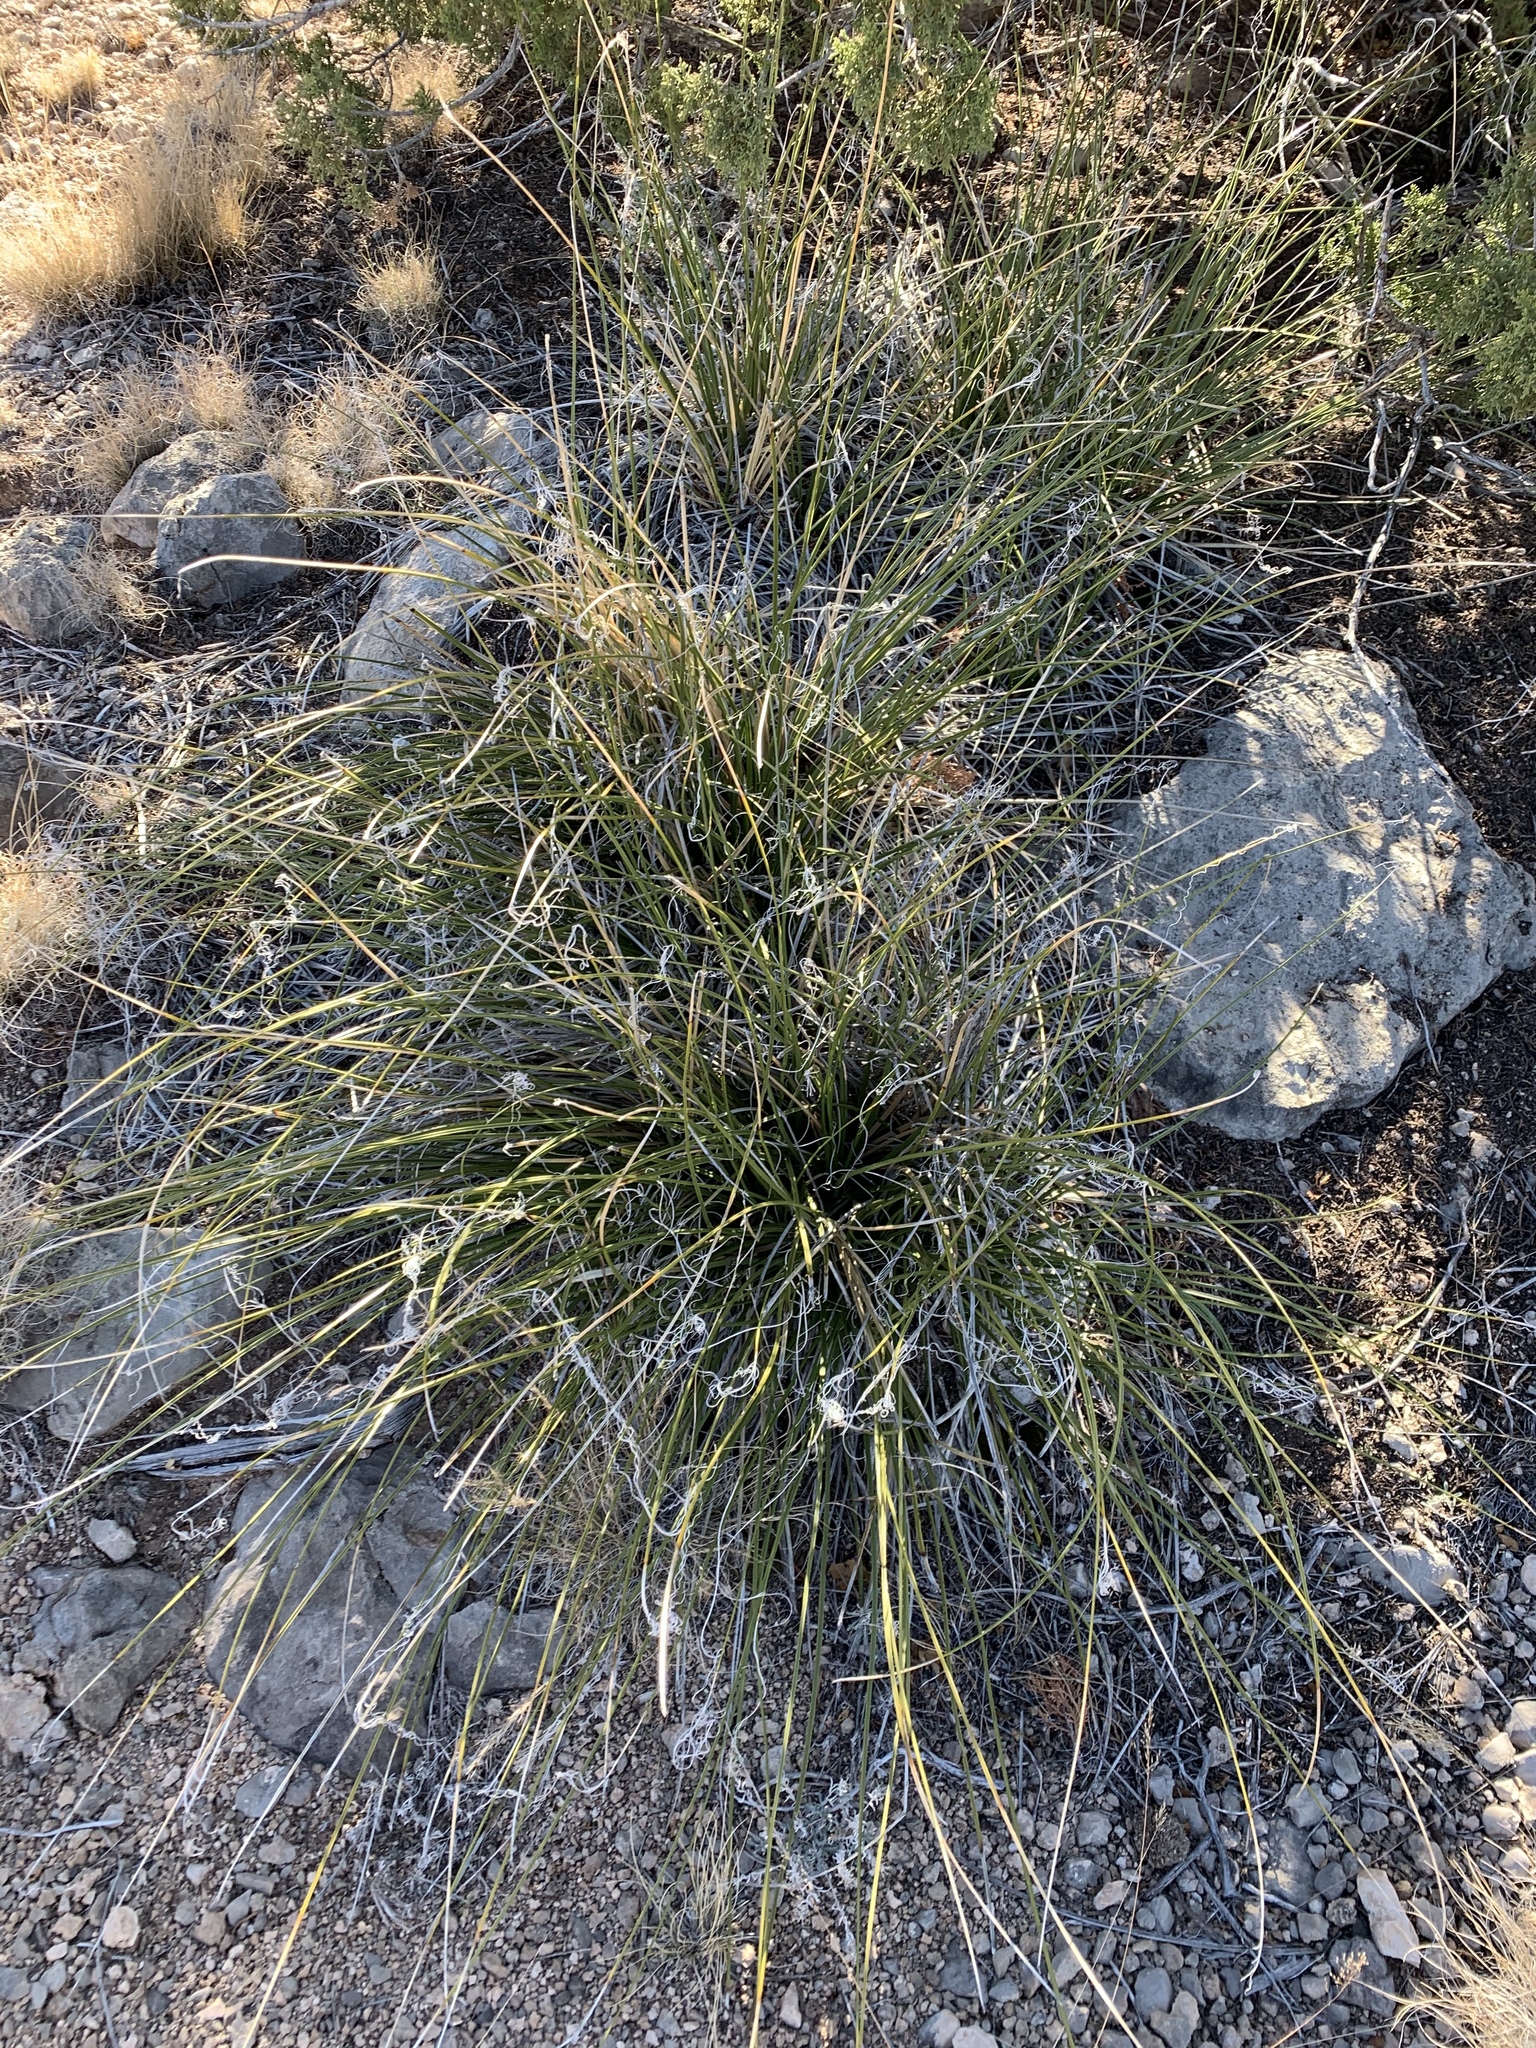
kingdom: Plantae
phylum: Tracheophyta
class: Liliopsida
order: Asparagales
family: Asparagaceae
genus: Nolina
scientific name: Nolina texana
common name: Texas sacahuiste
